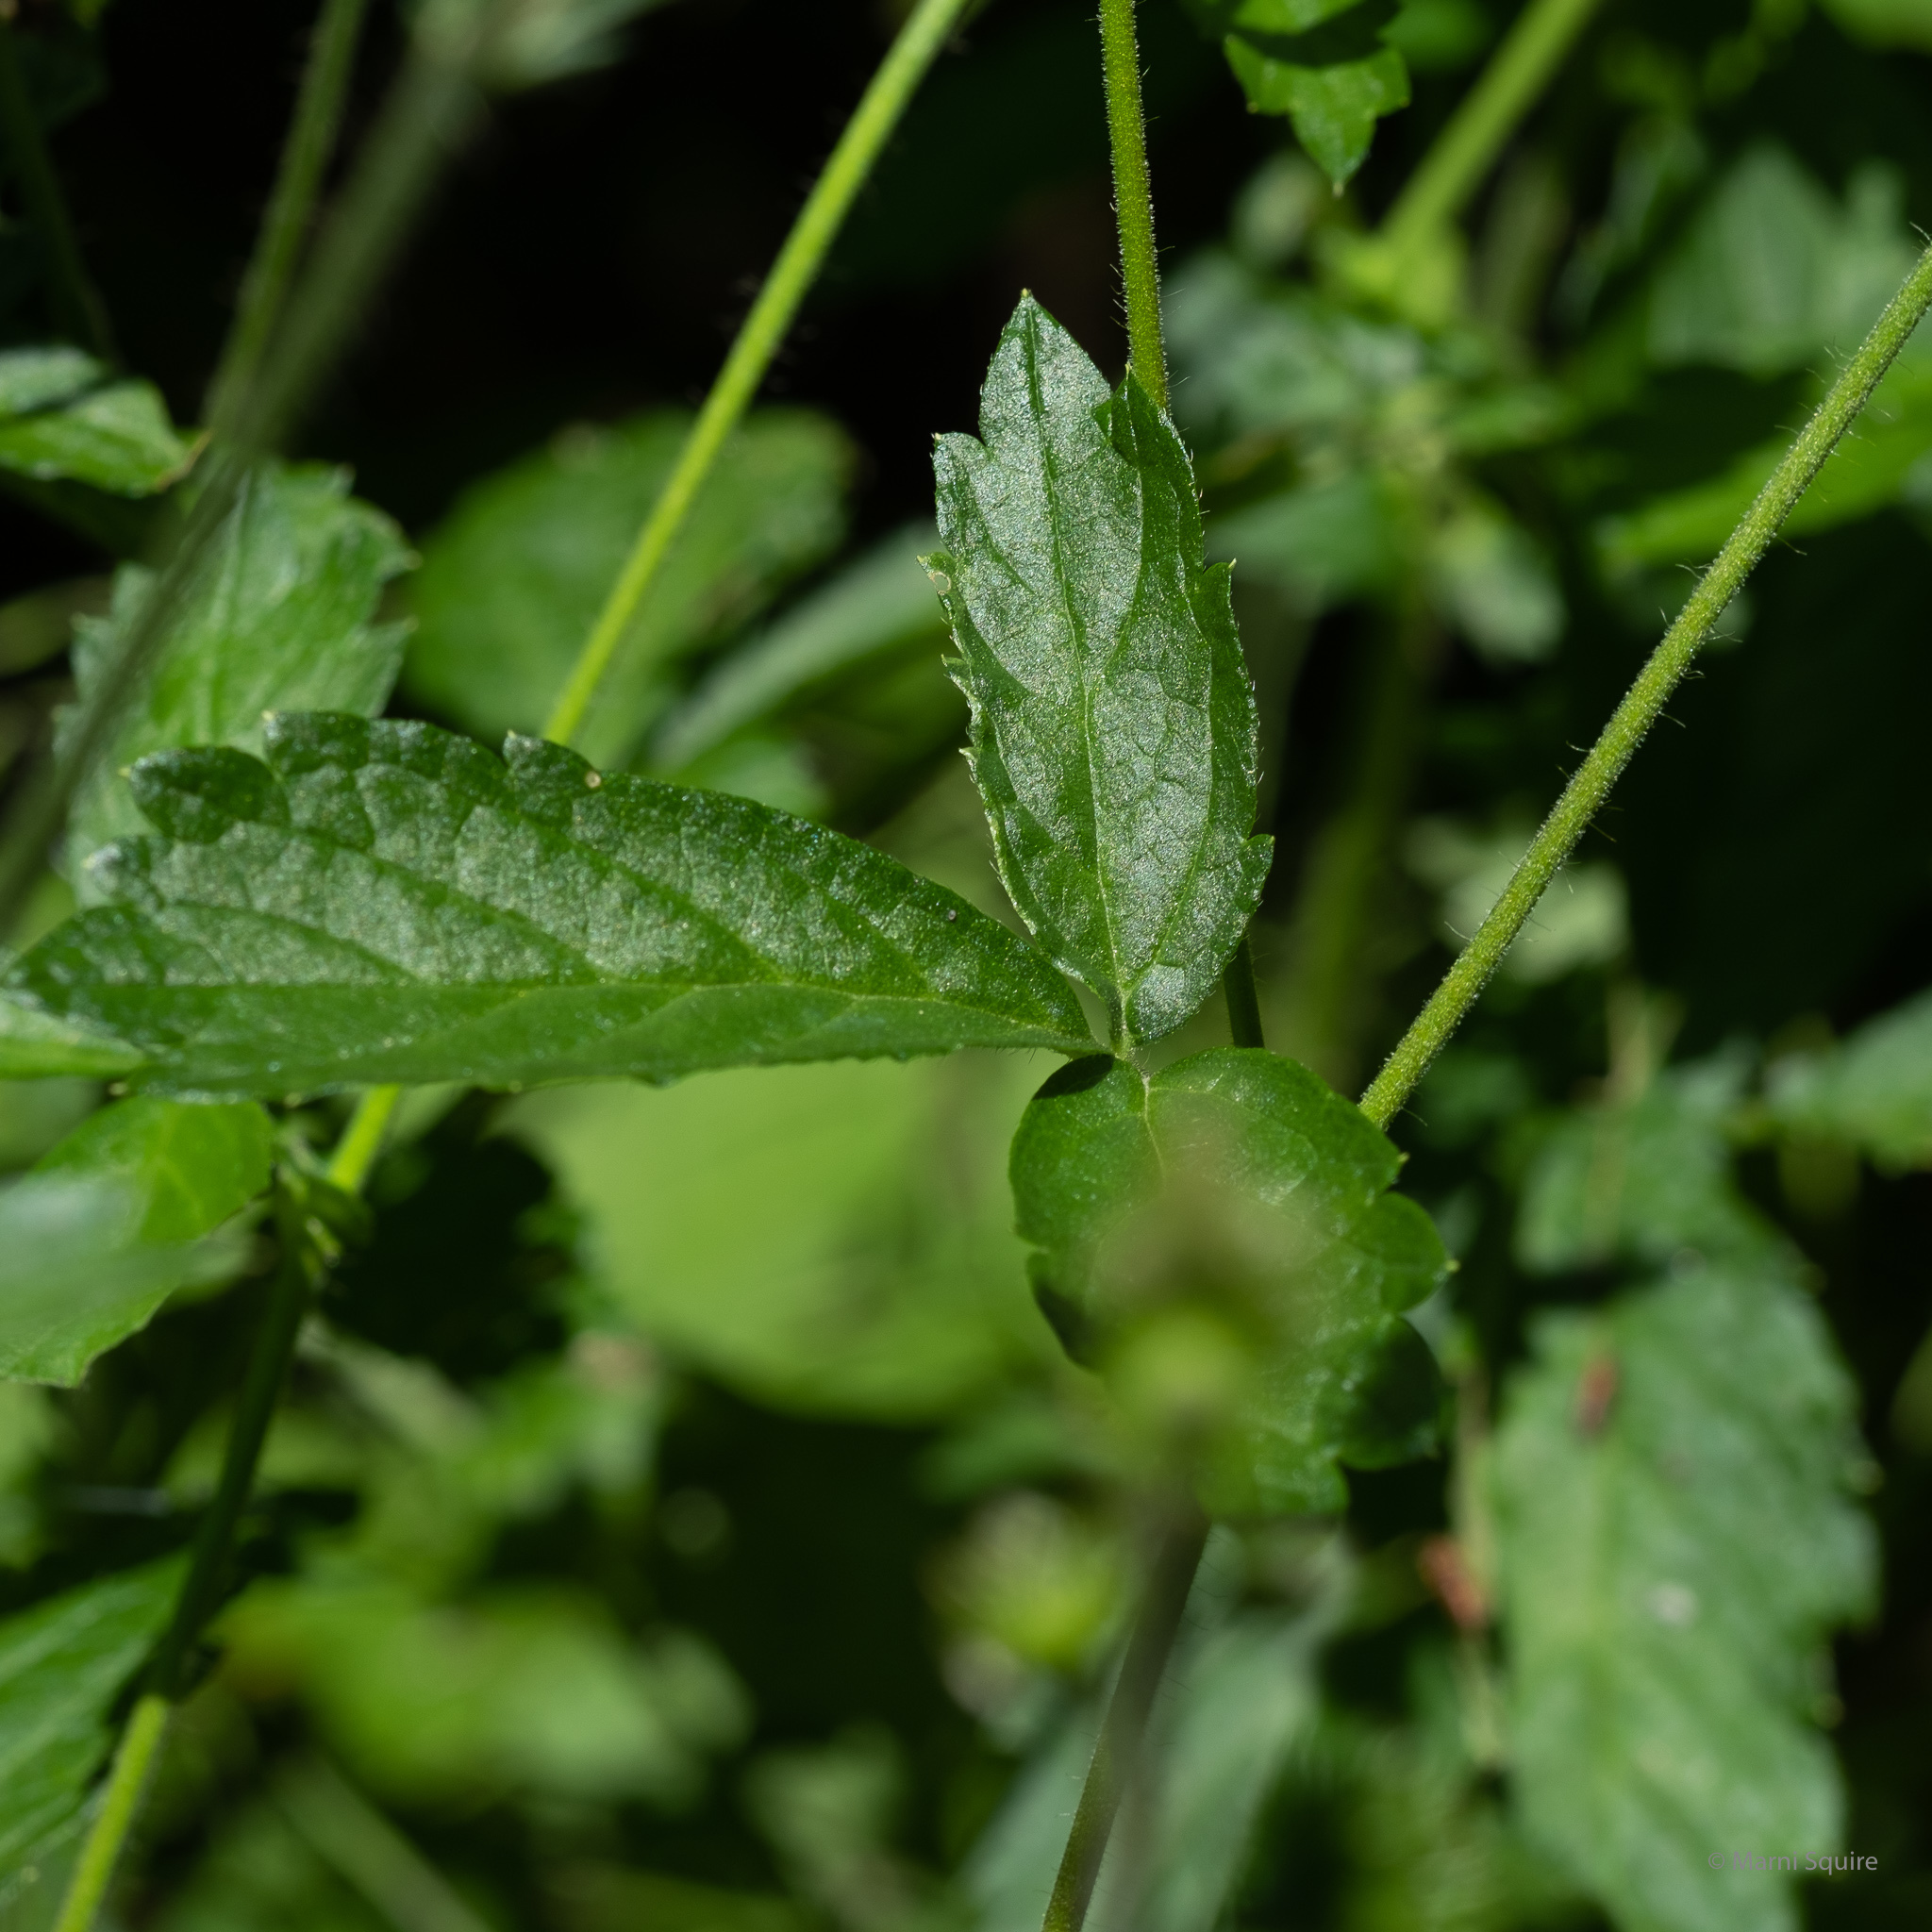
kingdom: Plantae
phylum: Tracheophyta
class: Magnoliopsida
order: Rosales
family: Rosaceae
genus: Agrimonia
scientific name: Agrimonia gryposepala
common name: Common agrimony
